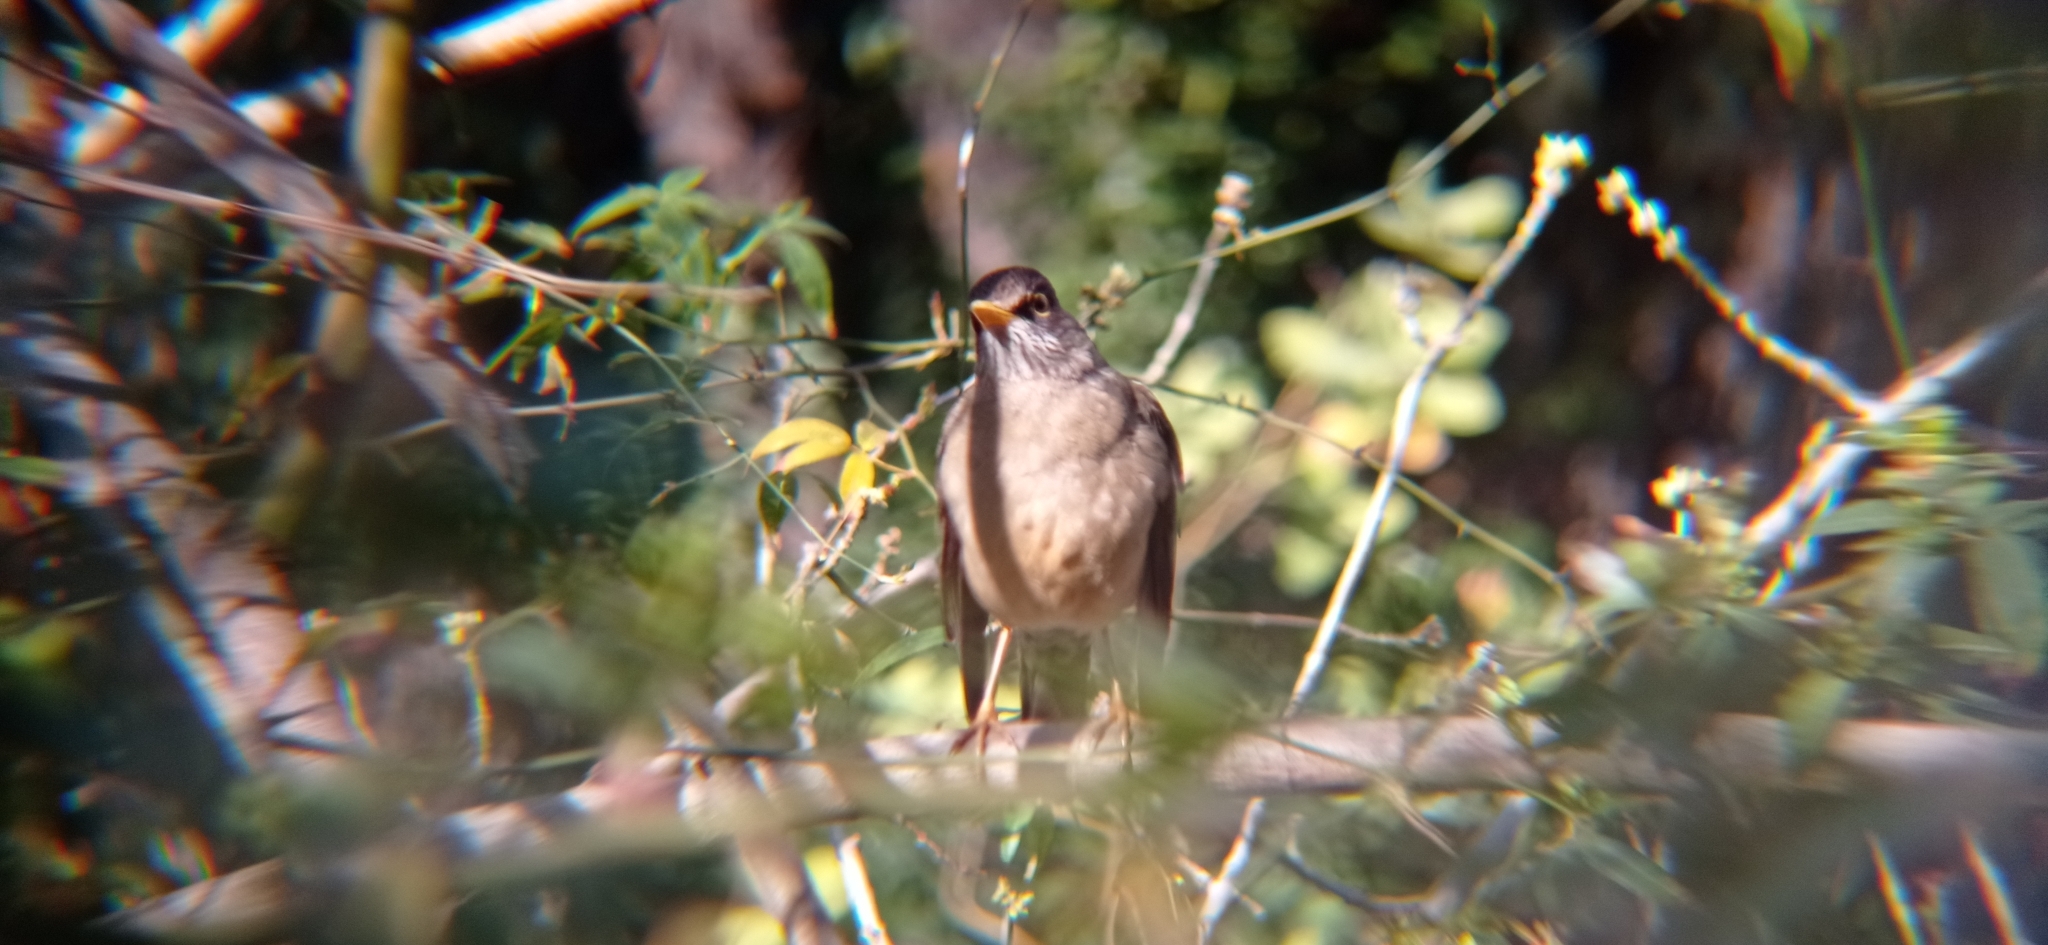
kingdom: Animalia
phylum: Chordata
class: Aves
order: Passeriformes
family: Turdidae
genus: Turdus
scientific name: Turdus falcklandii
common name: Austral thrush
